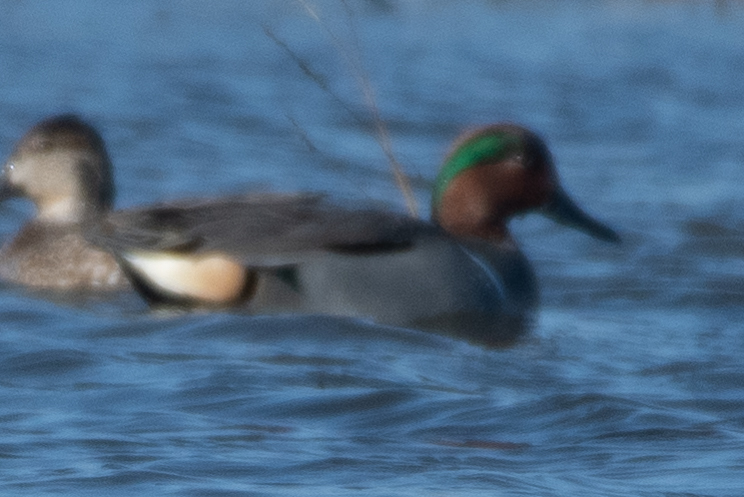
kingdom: Animalia
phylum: Chordata
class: Aves
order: Anseriformes
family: Anatidae
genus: Anas
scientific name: Anas crecca
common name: Eurasian teal
